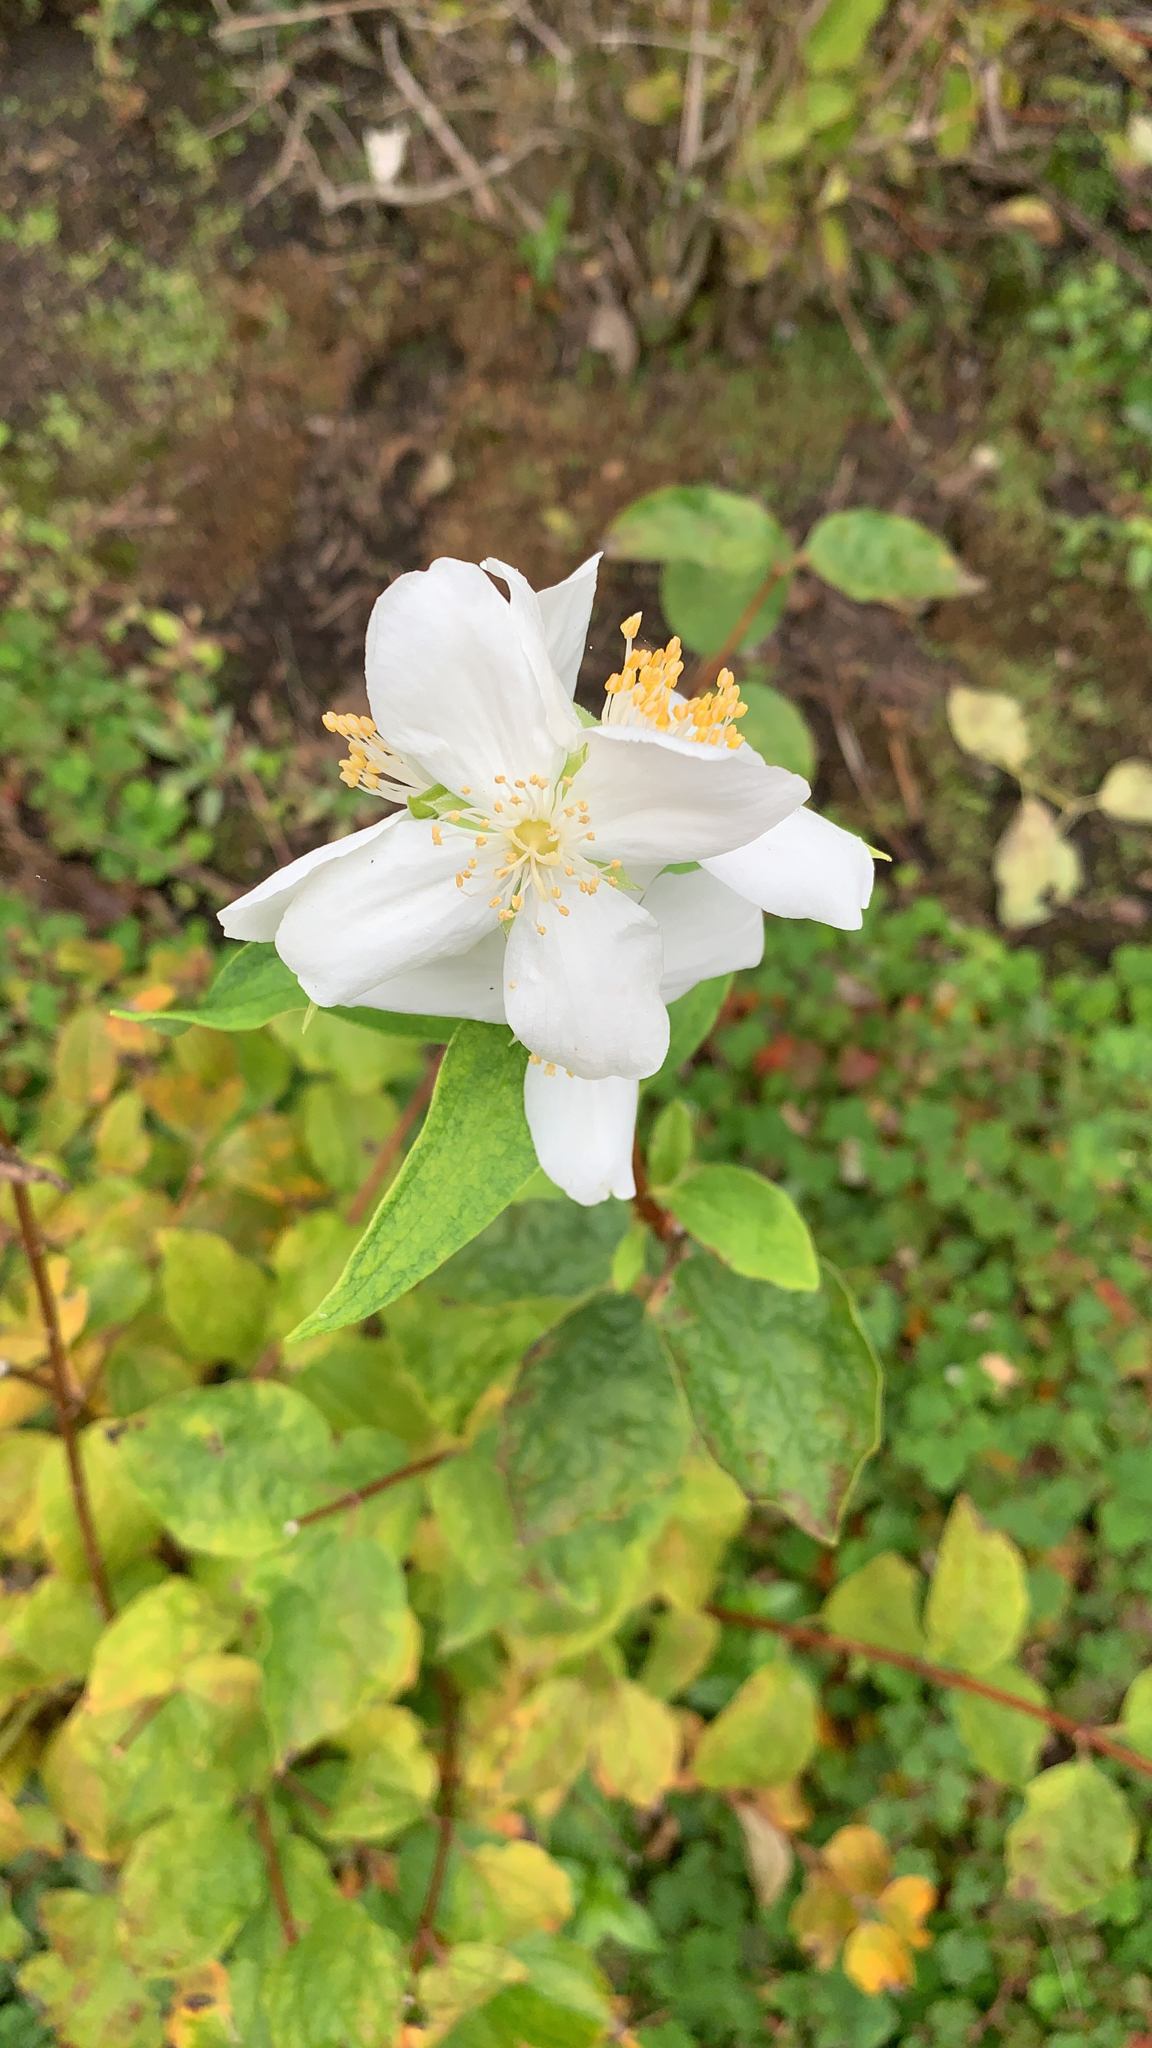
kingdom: Plantae
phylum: Tracheophyta
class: Magnoliopsida
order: Cornales
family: Hydrangeaceae
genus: Philadelphus
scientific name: Philadelphus lewisii
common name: Lewis's mock orange
